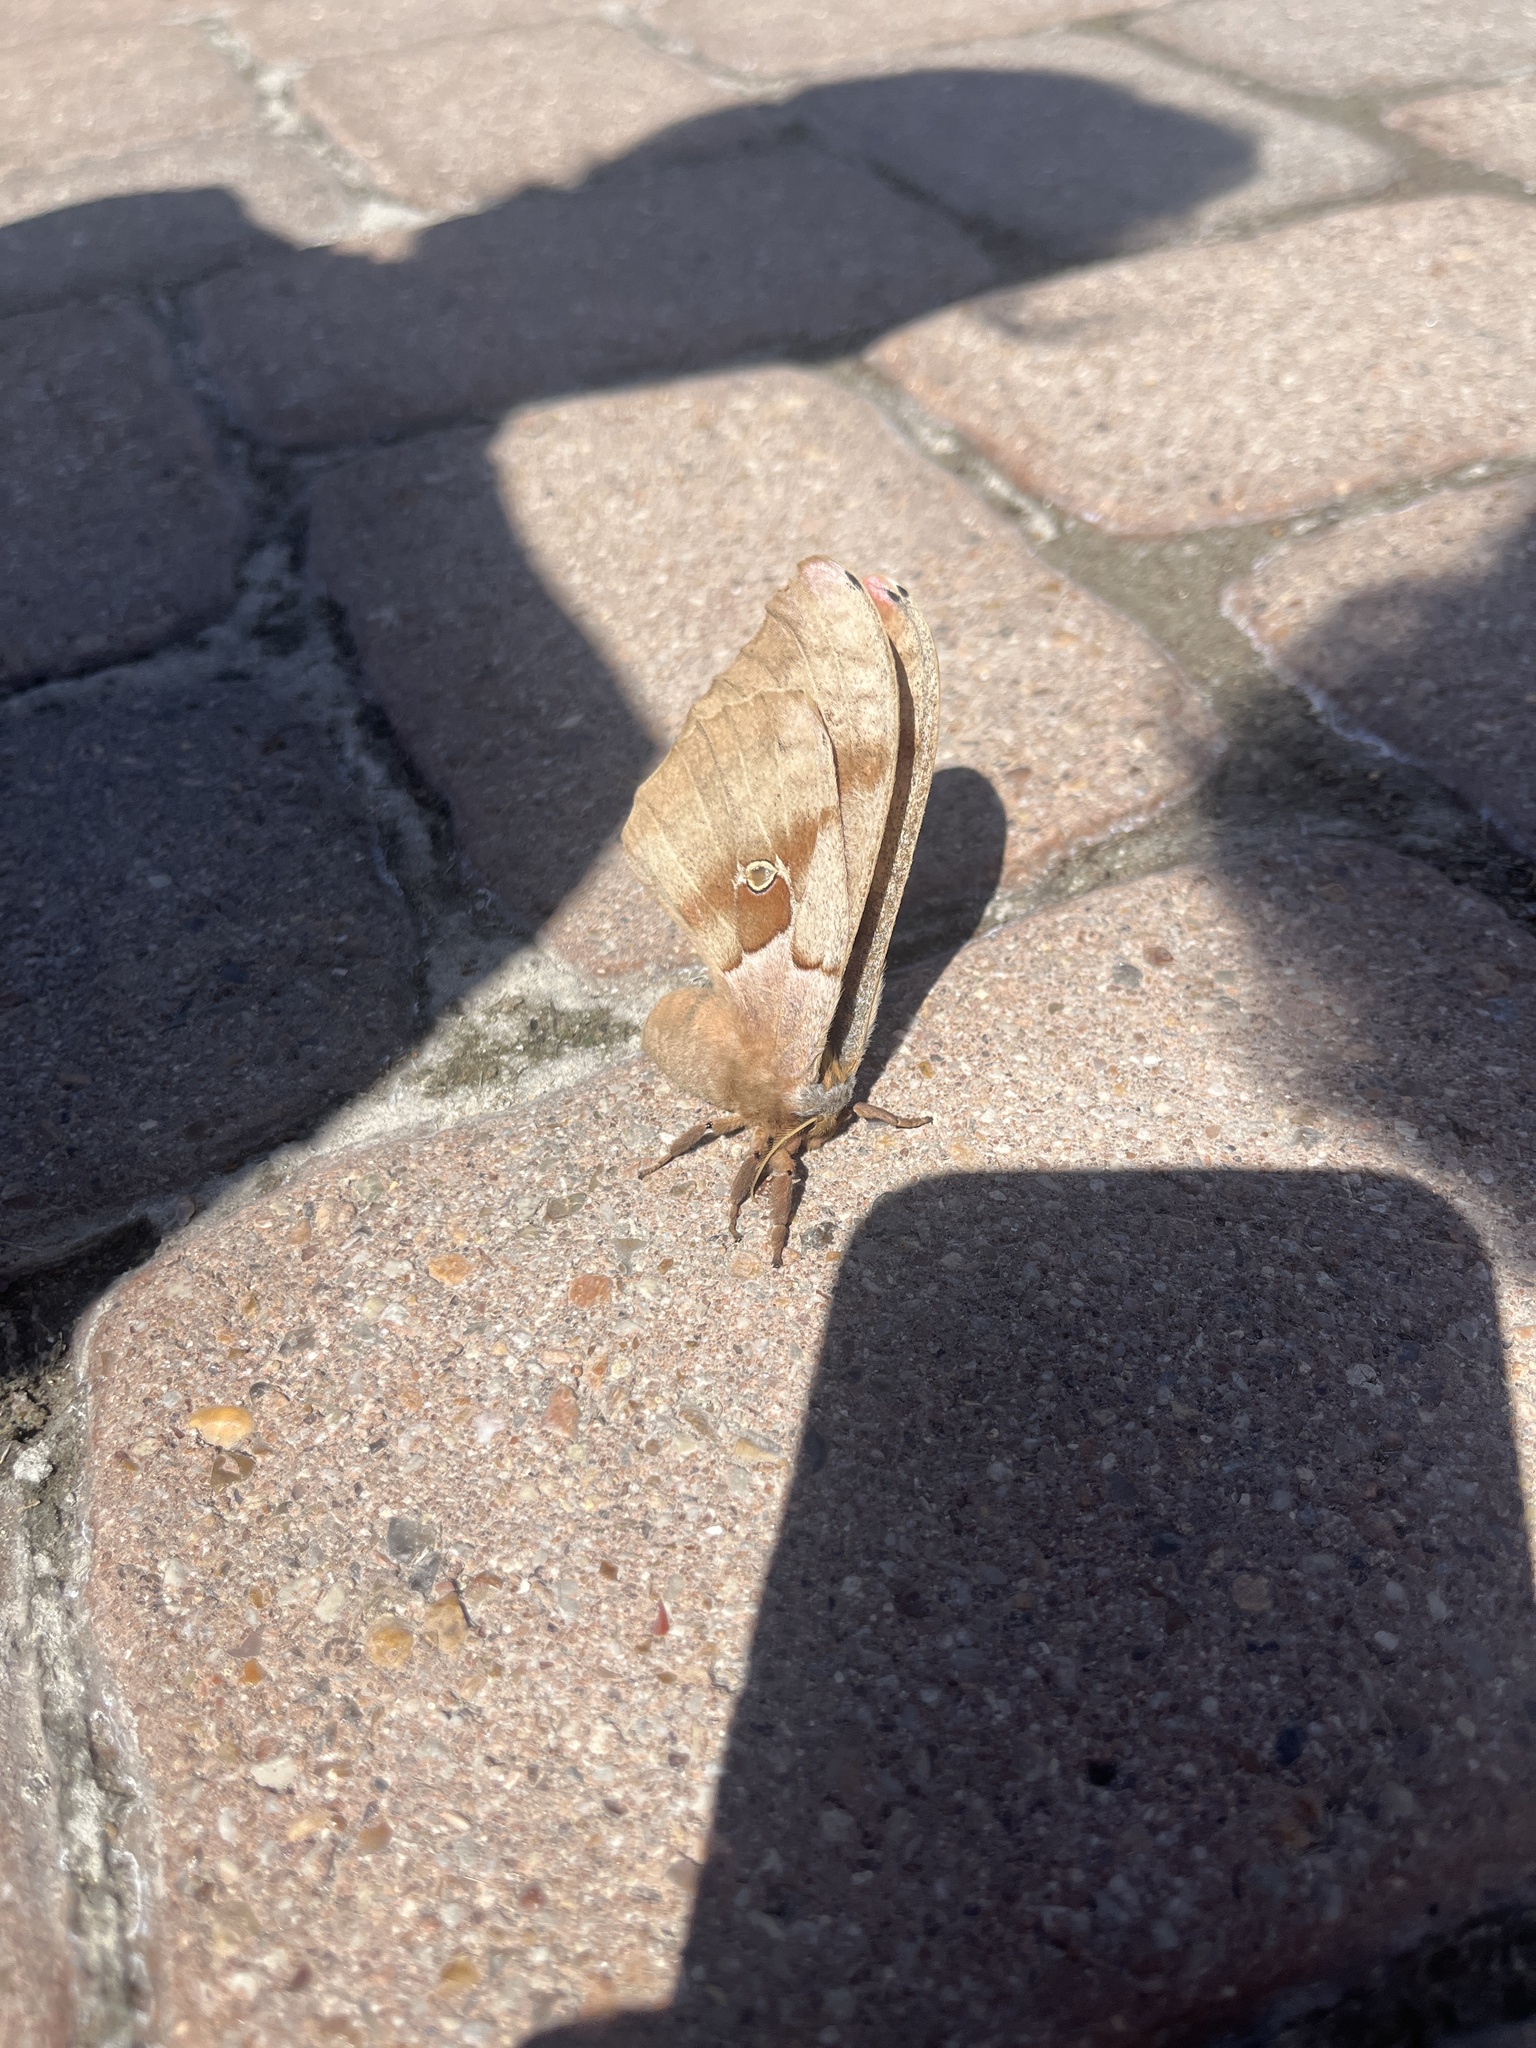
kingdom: Animalia
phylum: Arthropoda
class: Insecta
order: Lepidoptera
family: Saturniidae
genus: Antheraea
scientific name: Antheraea polyphemus
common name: Polyphemus moth
